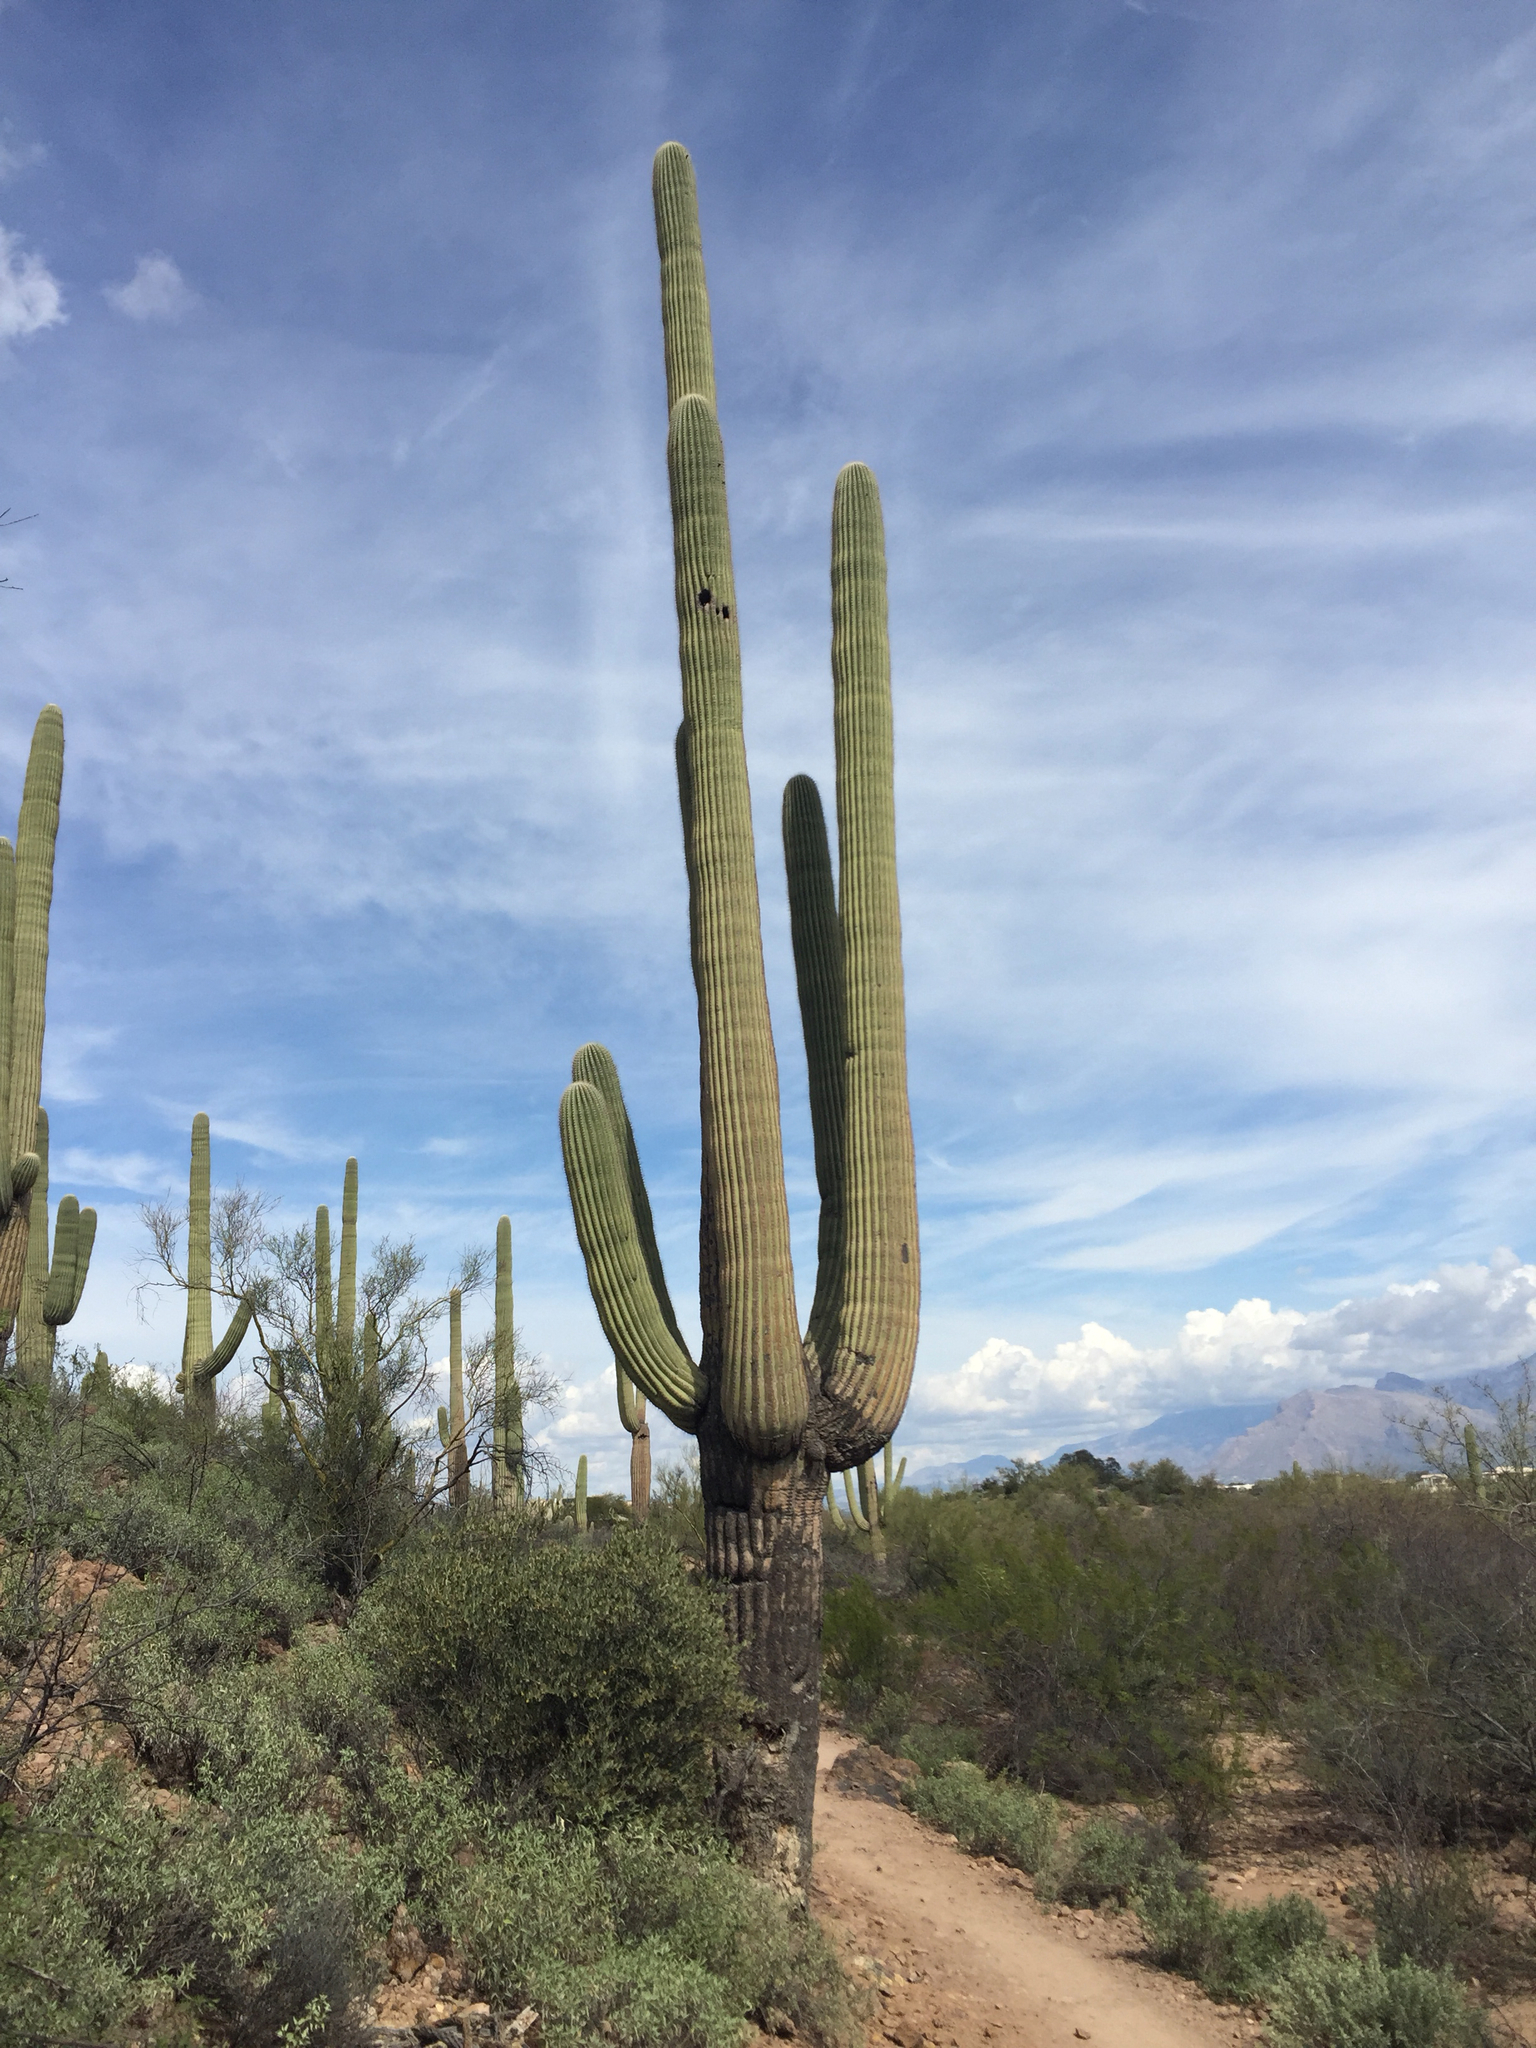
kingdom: Plantae
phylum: Tracheophyta
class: Magnoliopsida
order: Caryophyllales
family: Cactaceae
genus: Carnegiea
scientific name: Carnegiea gigantea
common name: Saguaro
